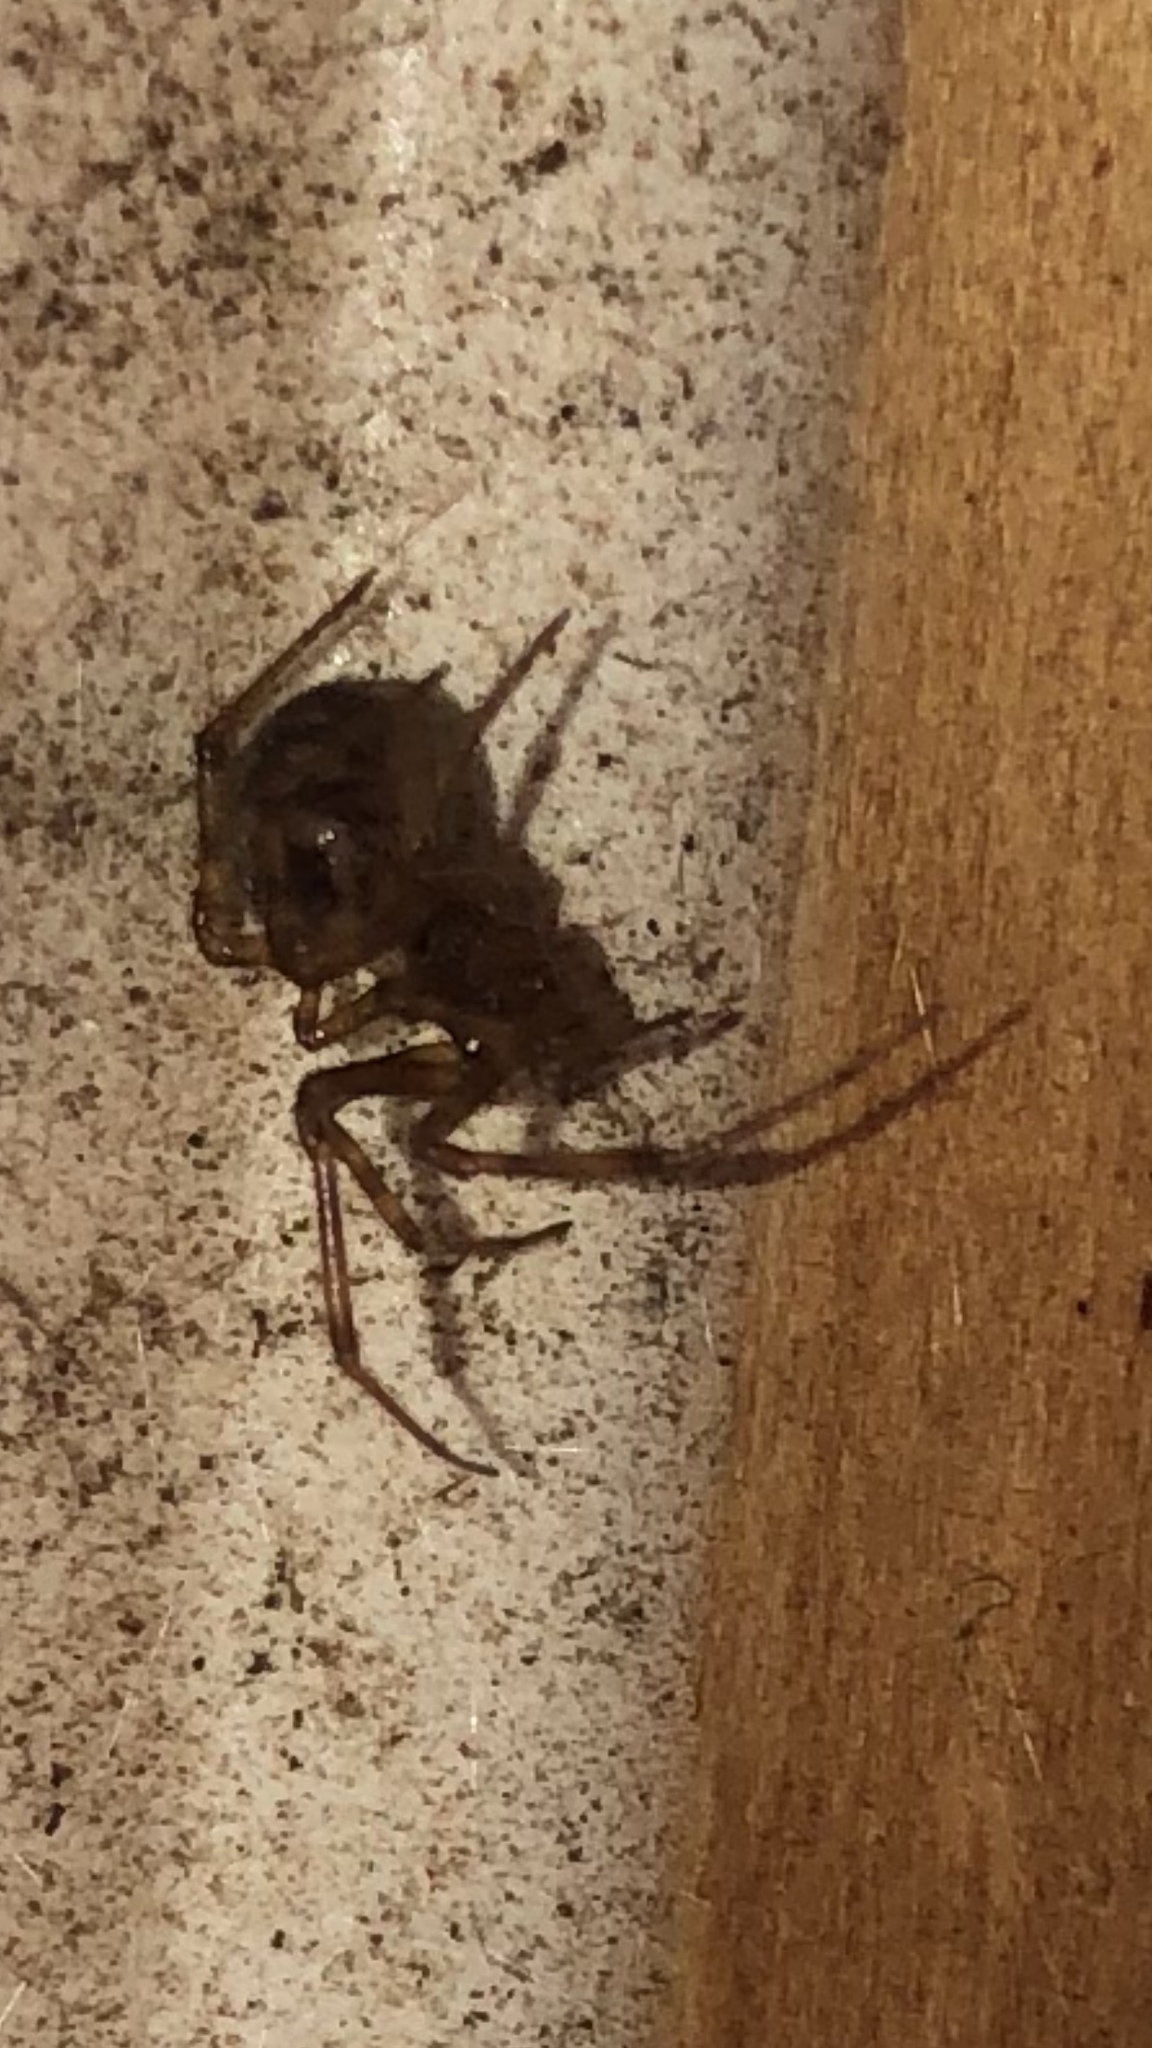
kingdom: Animalia
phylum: Arthropoda
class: Arachnida
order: Araneae
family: Theridiidae
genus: Steatoda
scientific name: Steatoda triangulosa
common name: Triangulate bud spider
